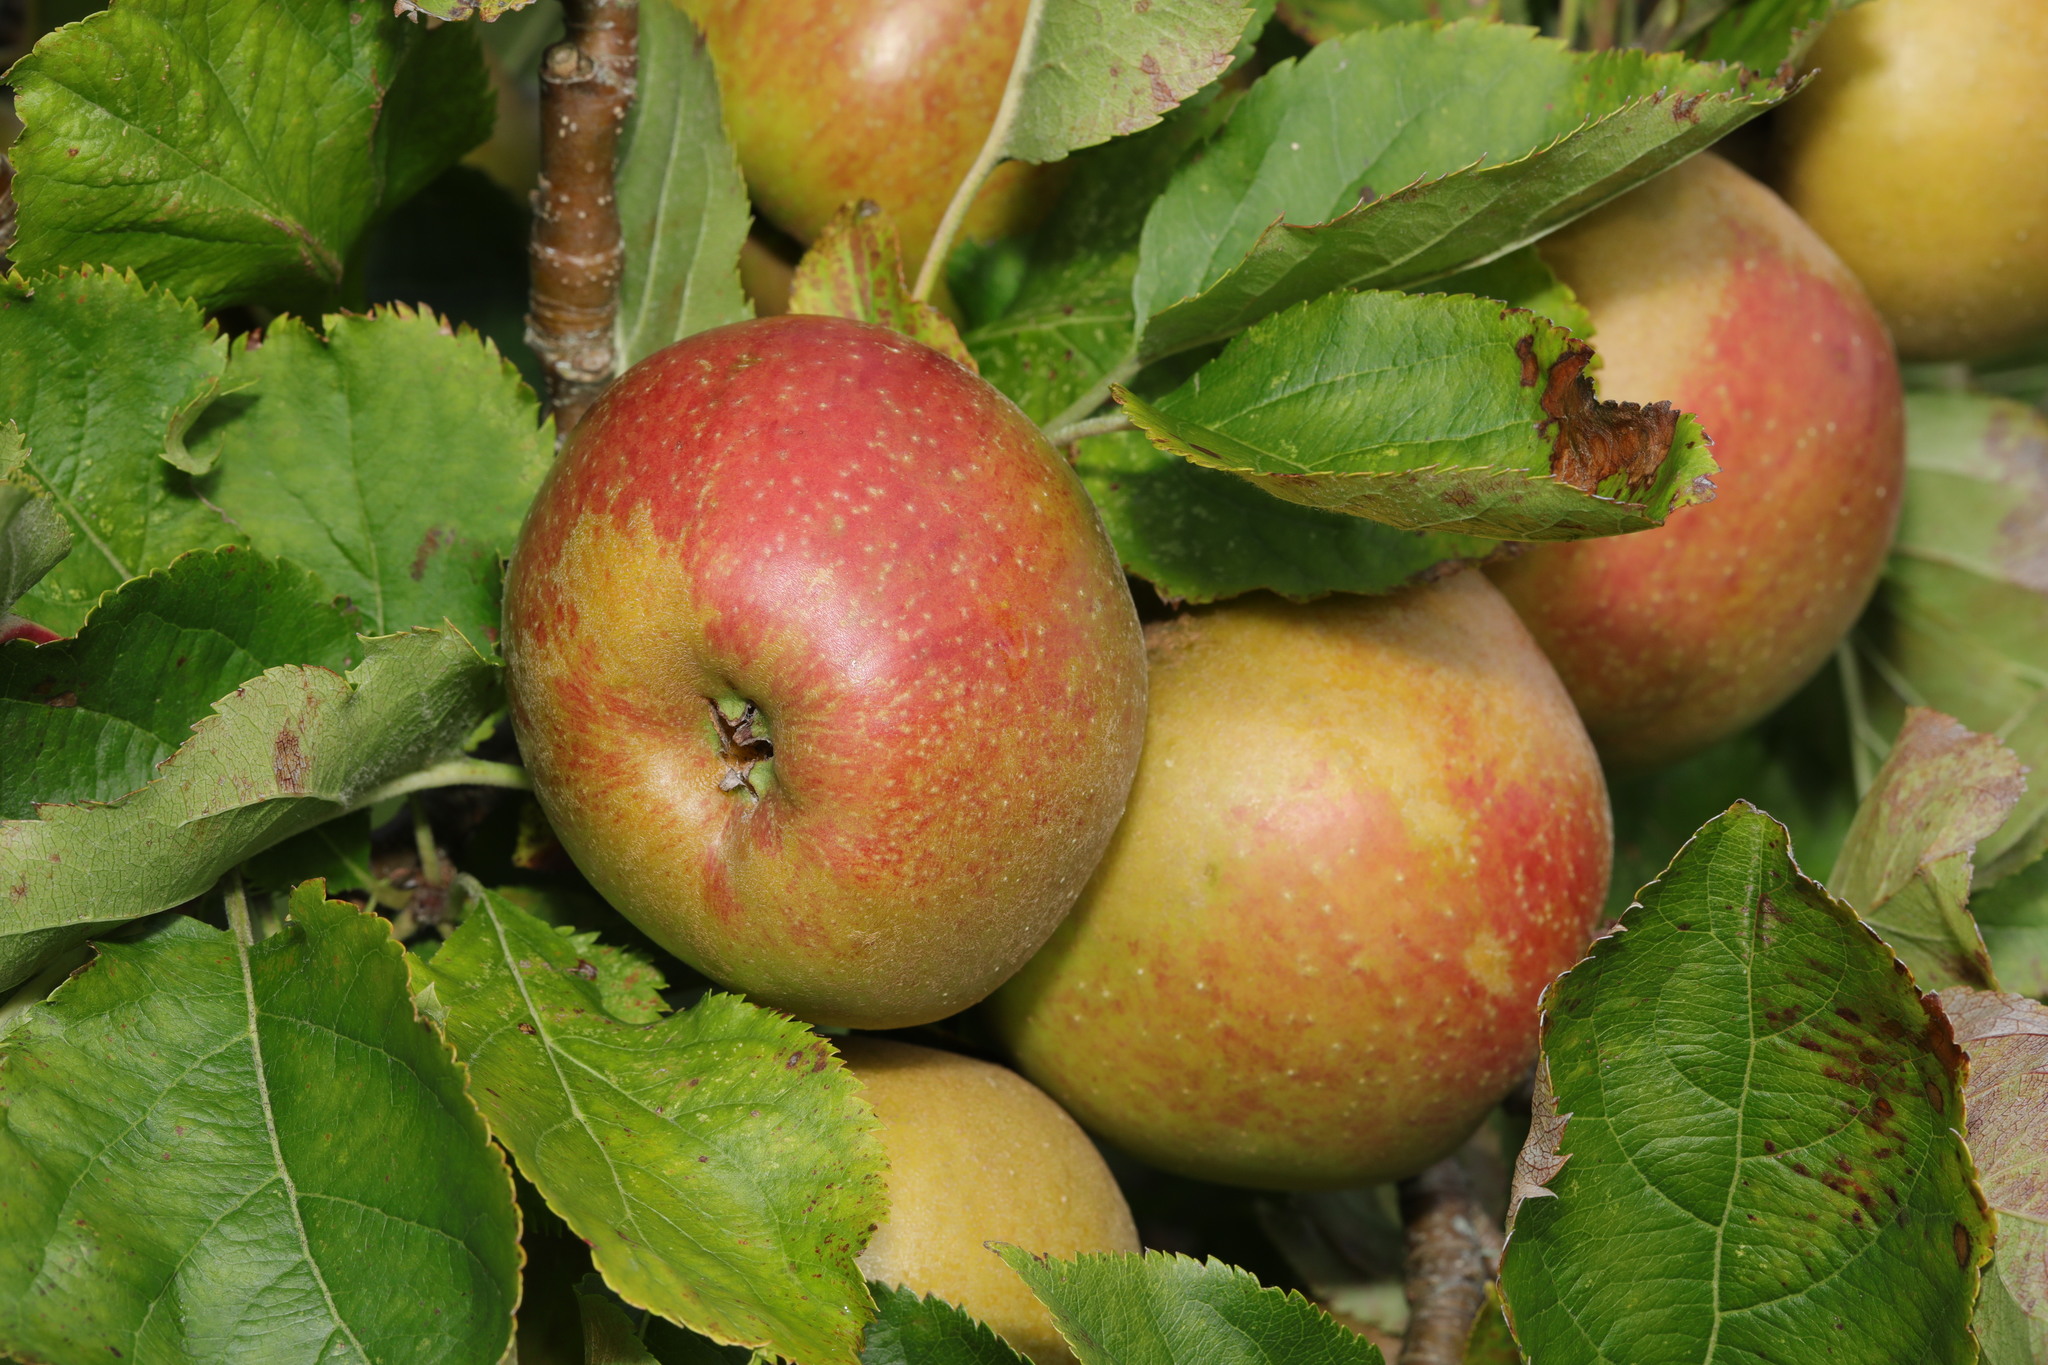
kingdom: Plantae
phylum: Tracheophyta
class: Magnoliopsida
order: Rosales
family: Rosaceae
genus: Malus
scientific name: Malus domestica
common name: Apple
